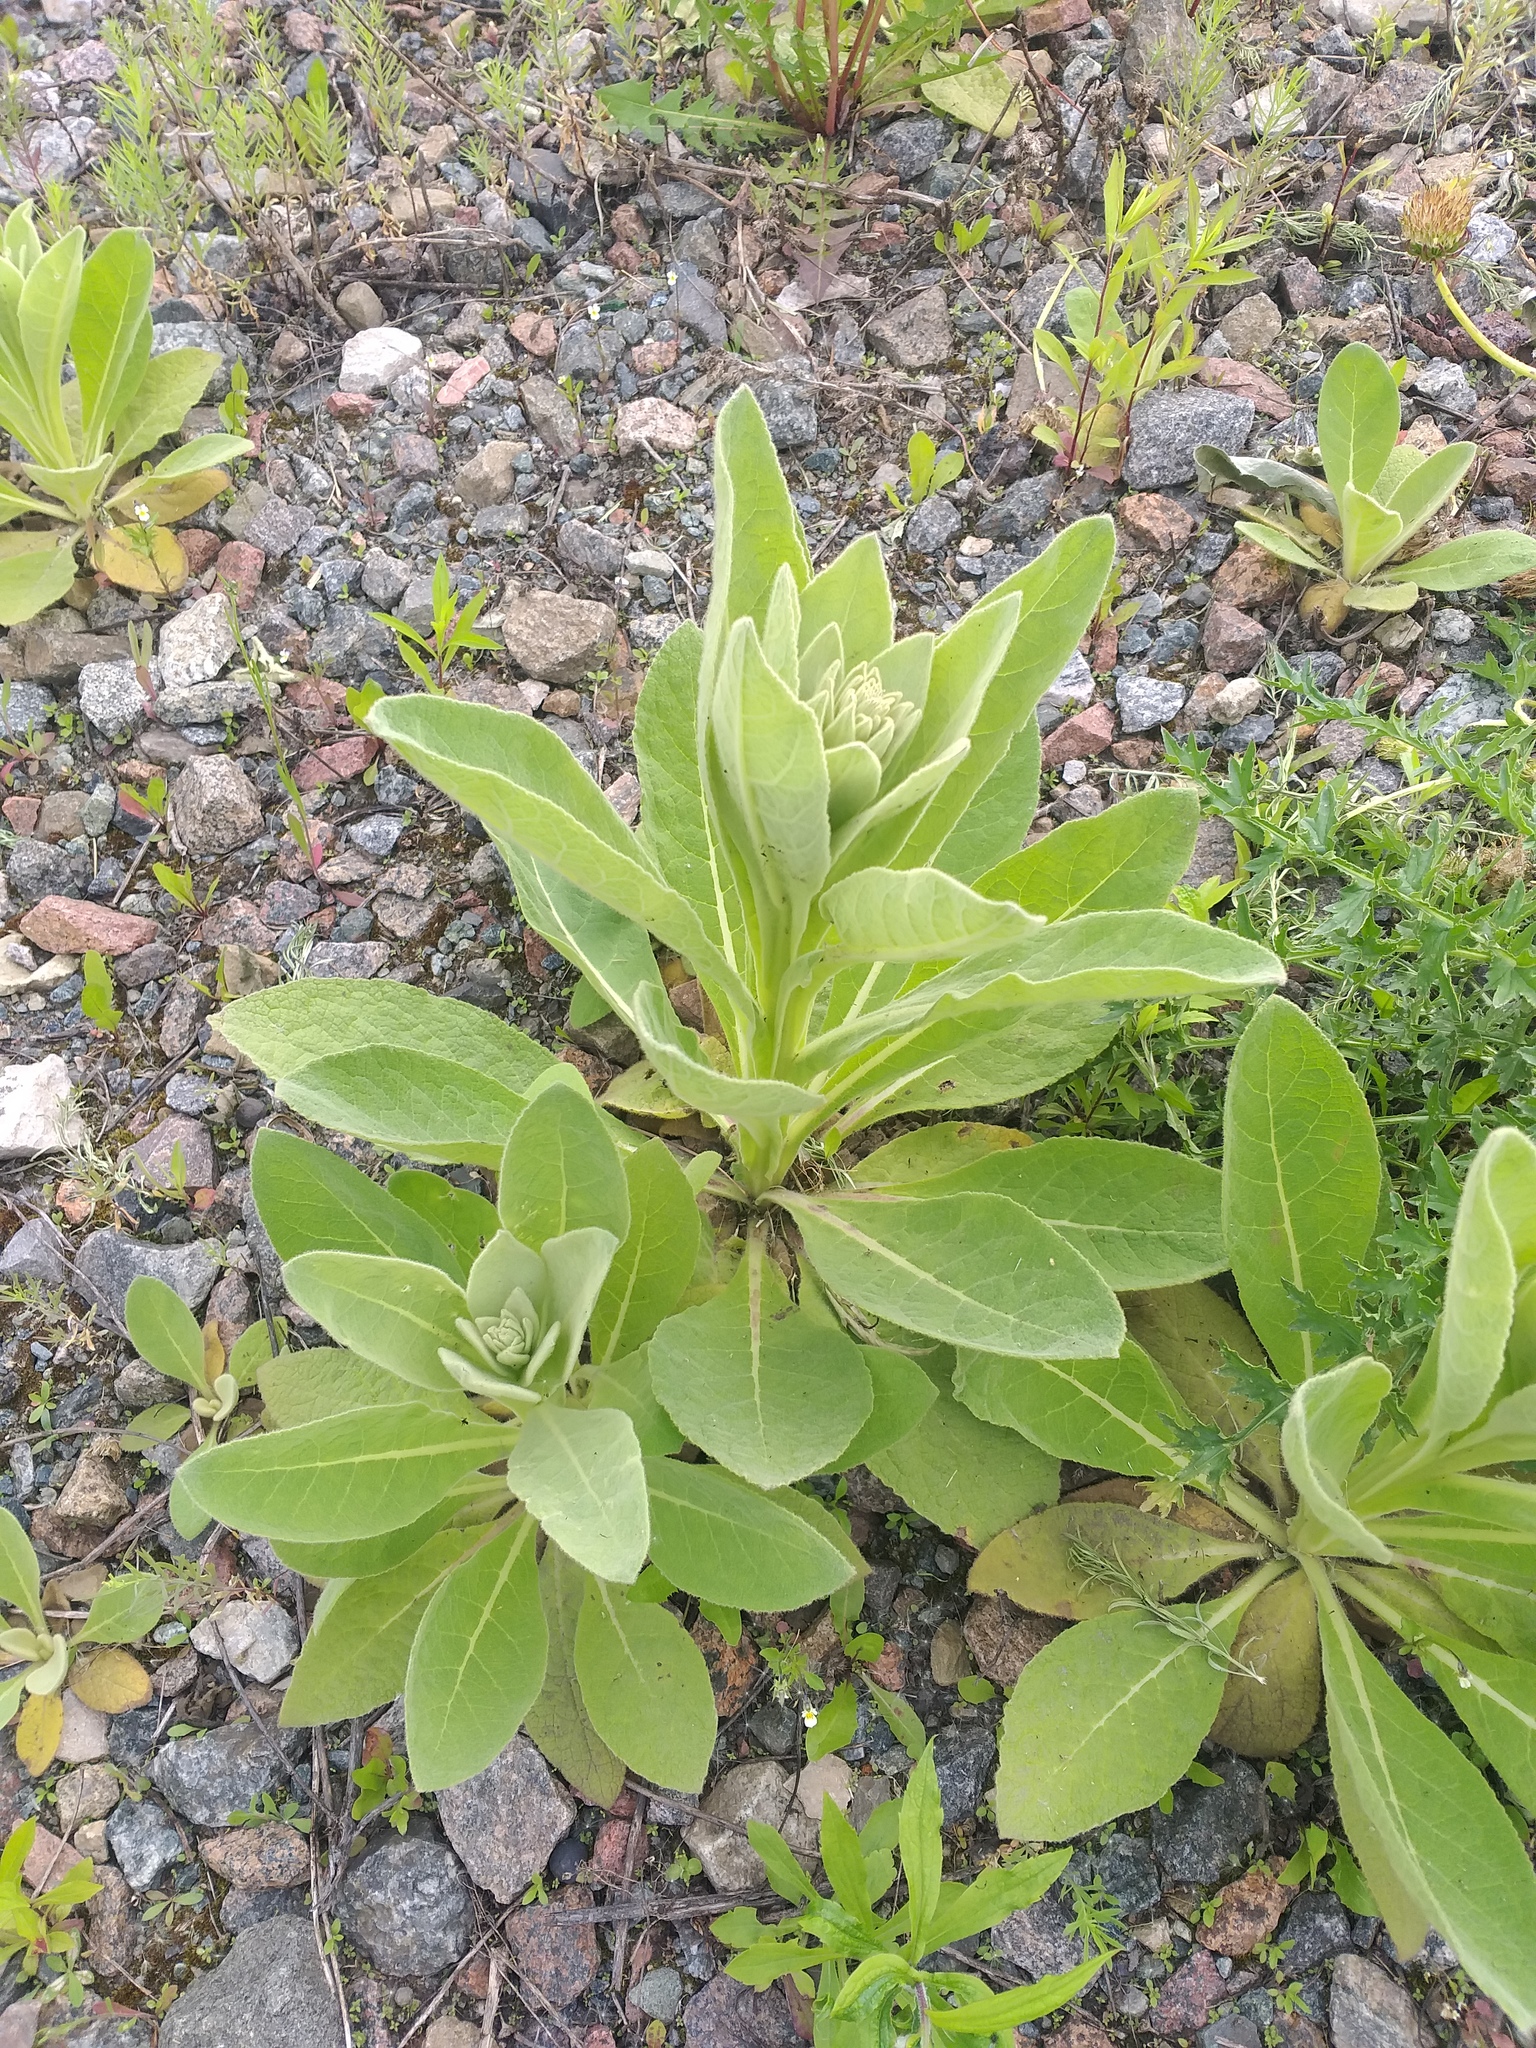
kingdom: Plantae
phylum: Tracheophyta
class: Magnoliopsida
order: Lamiales
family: Scrophulariaceae
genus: Verbascum
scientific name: Verbascum thapsus
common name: Common mullein
